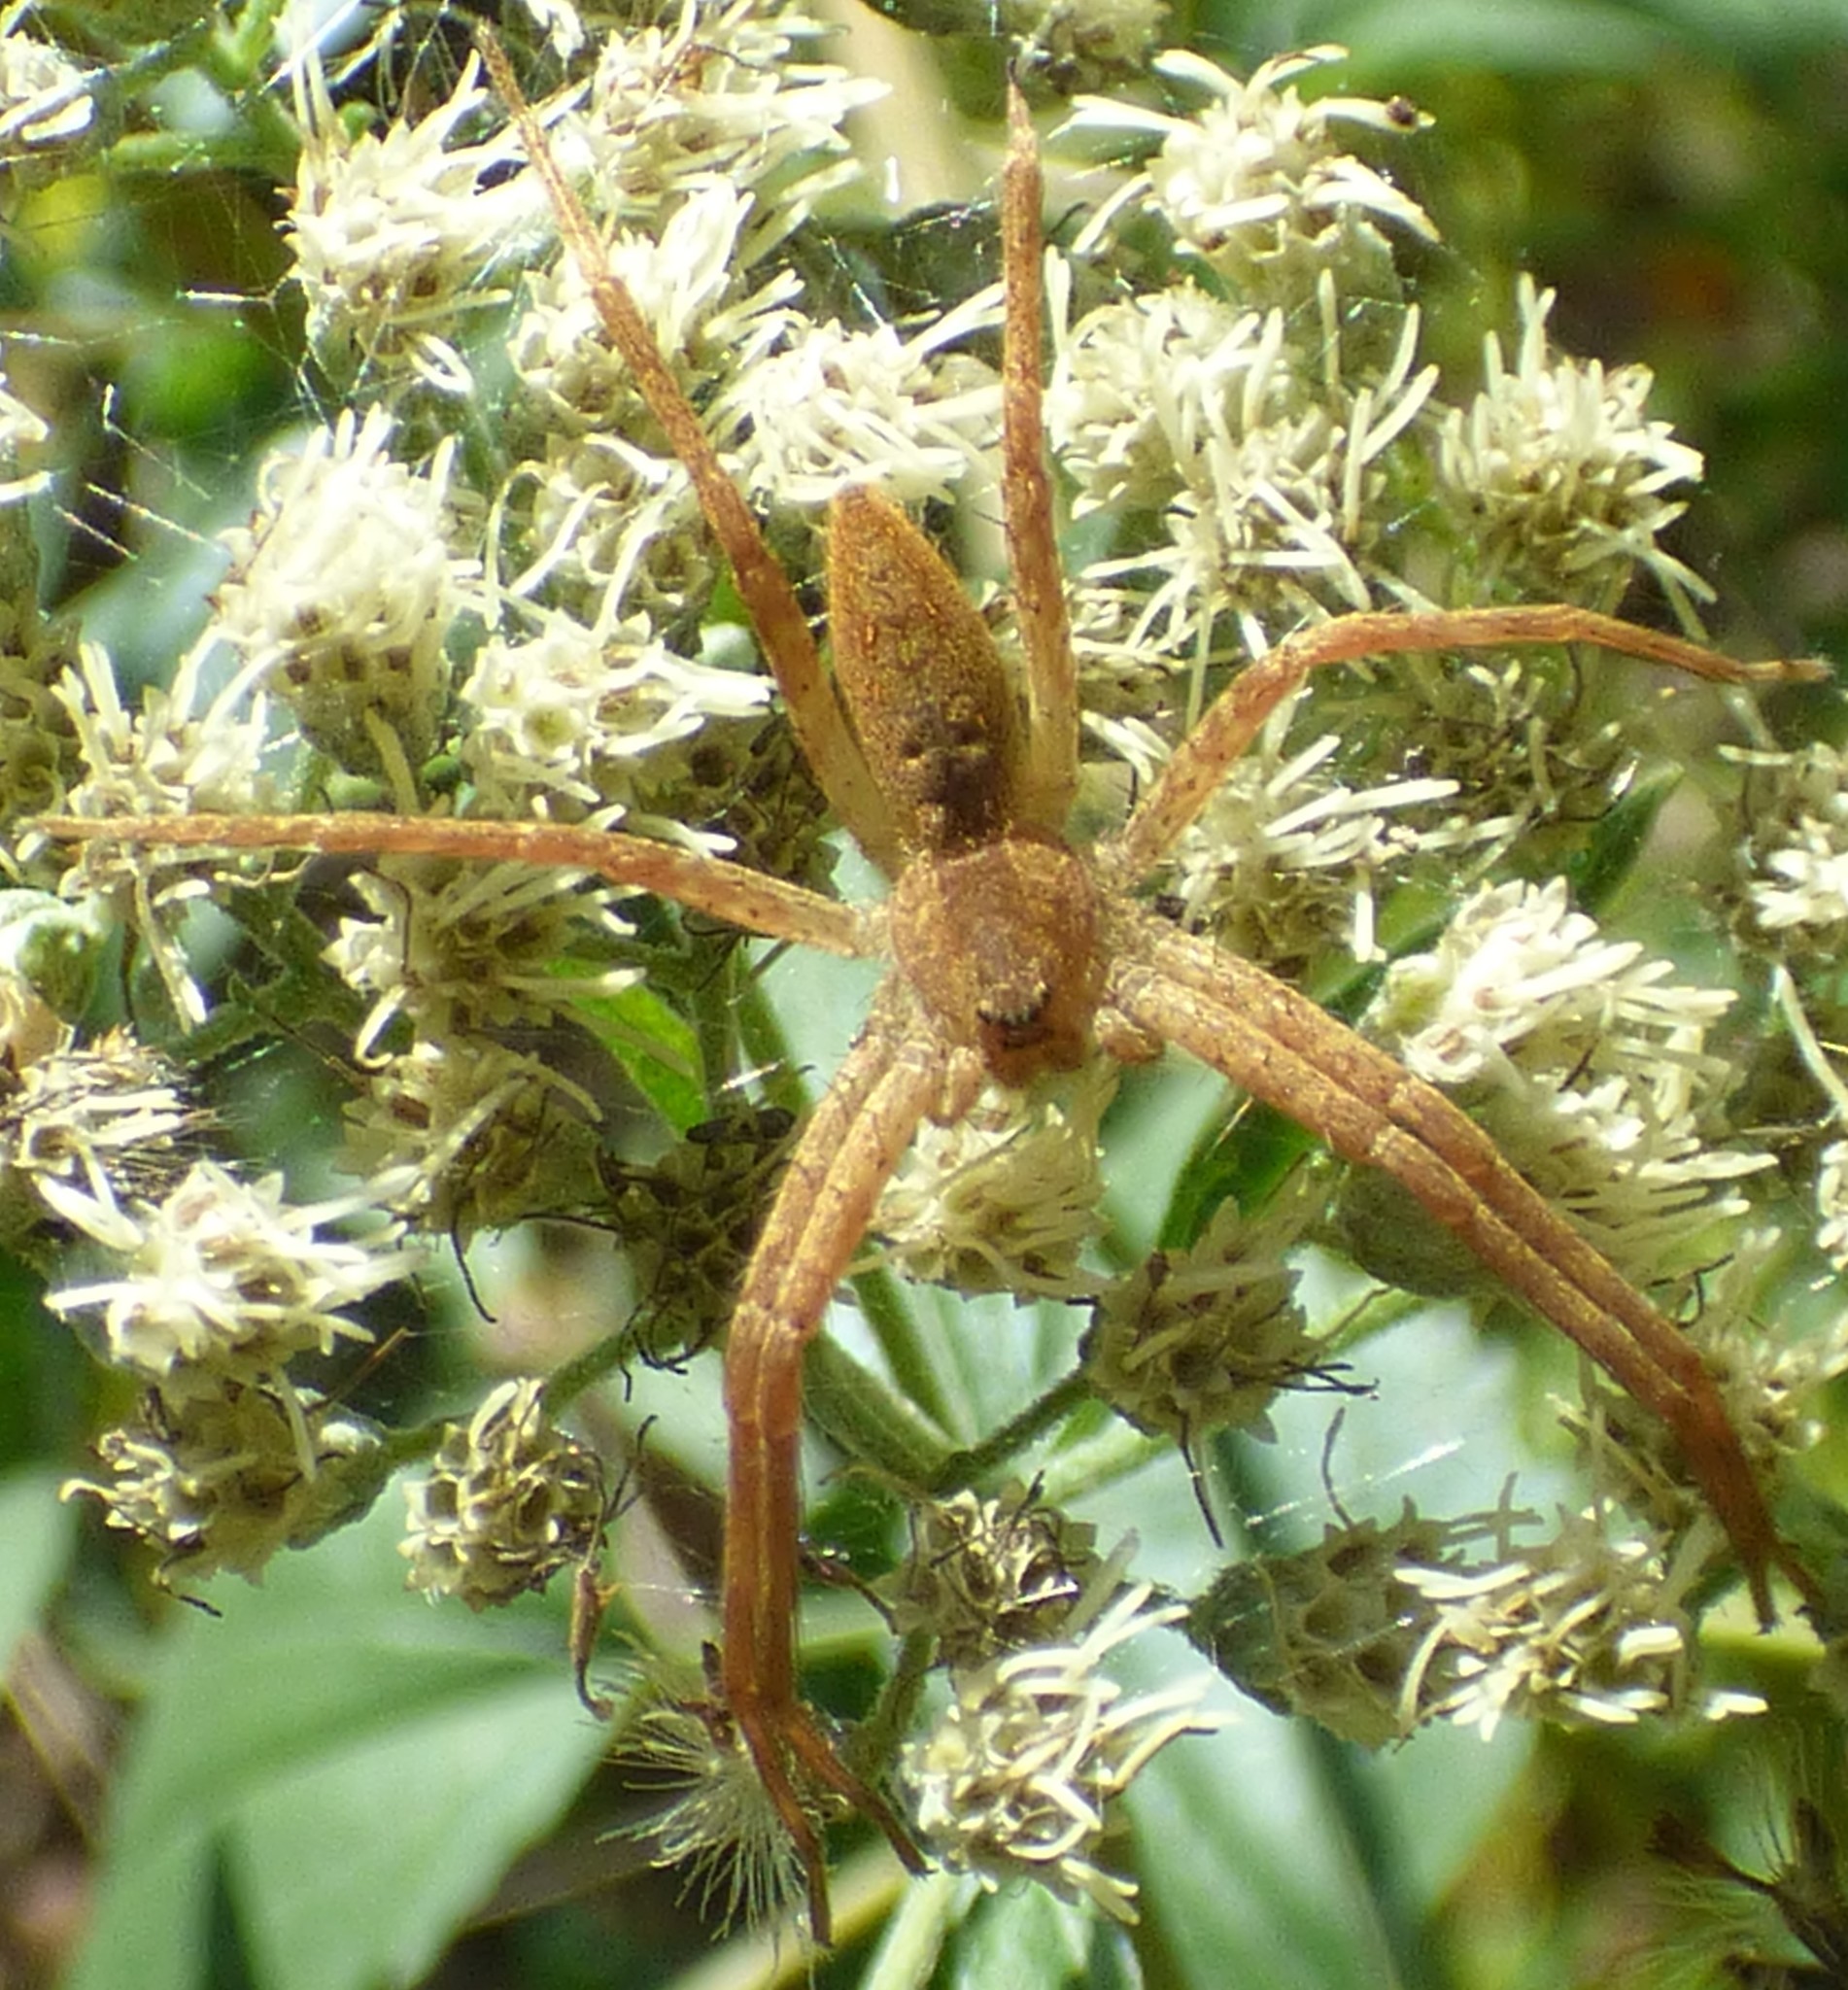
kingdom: Animalia
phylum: Arthropoda
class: Arachnida
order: Araneae
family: Pisauridae
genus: Pisaurina
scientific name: Pisaurina mira
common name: American nursery web spider
